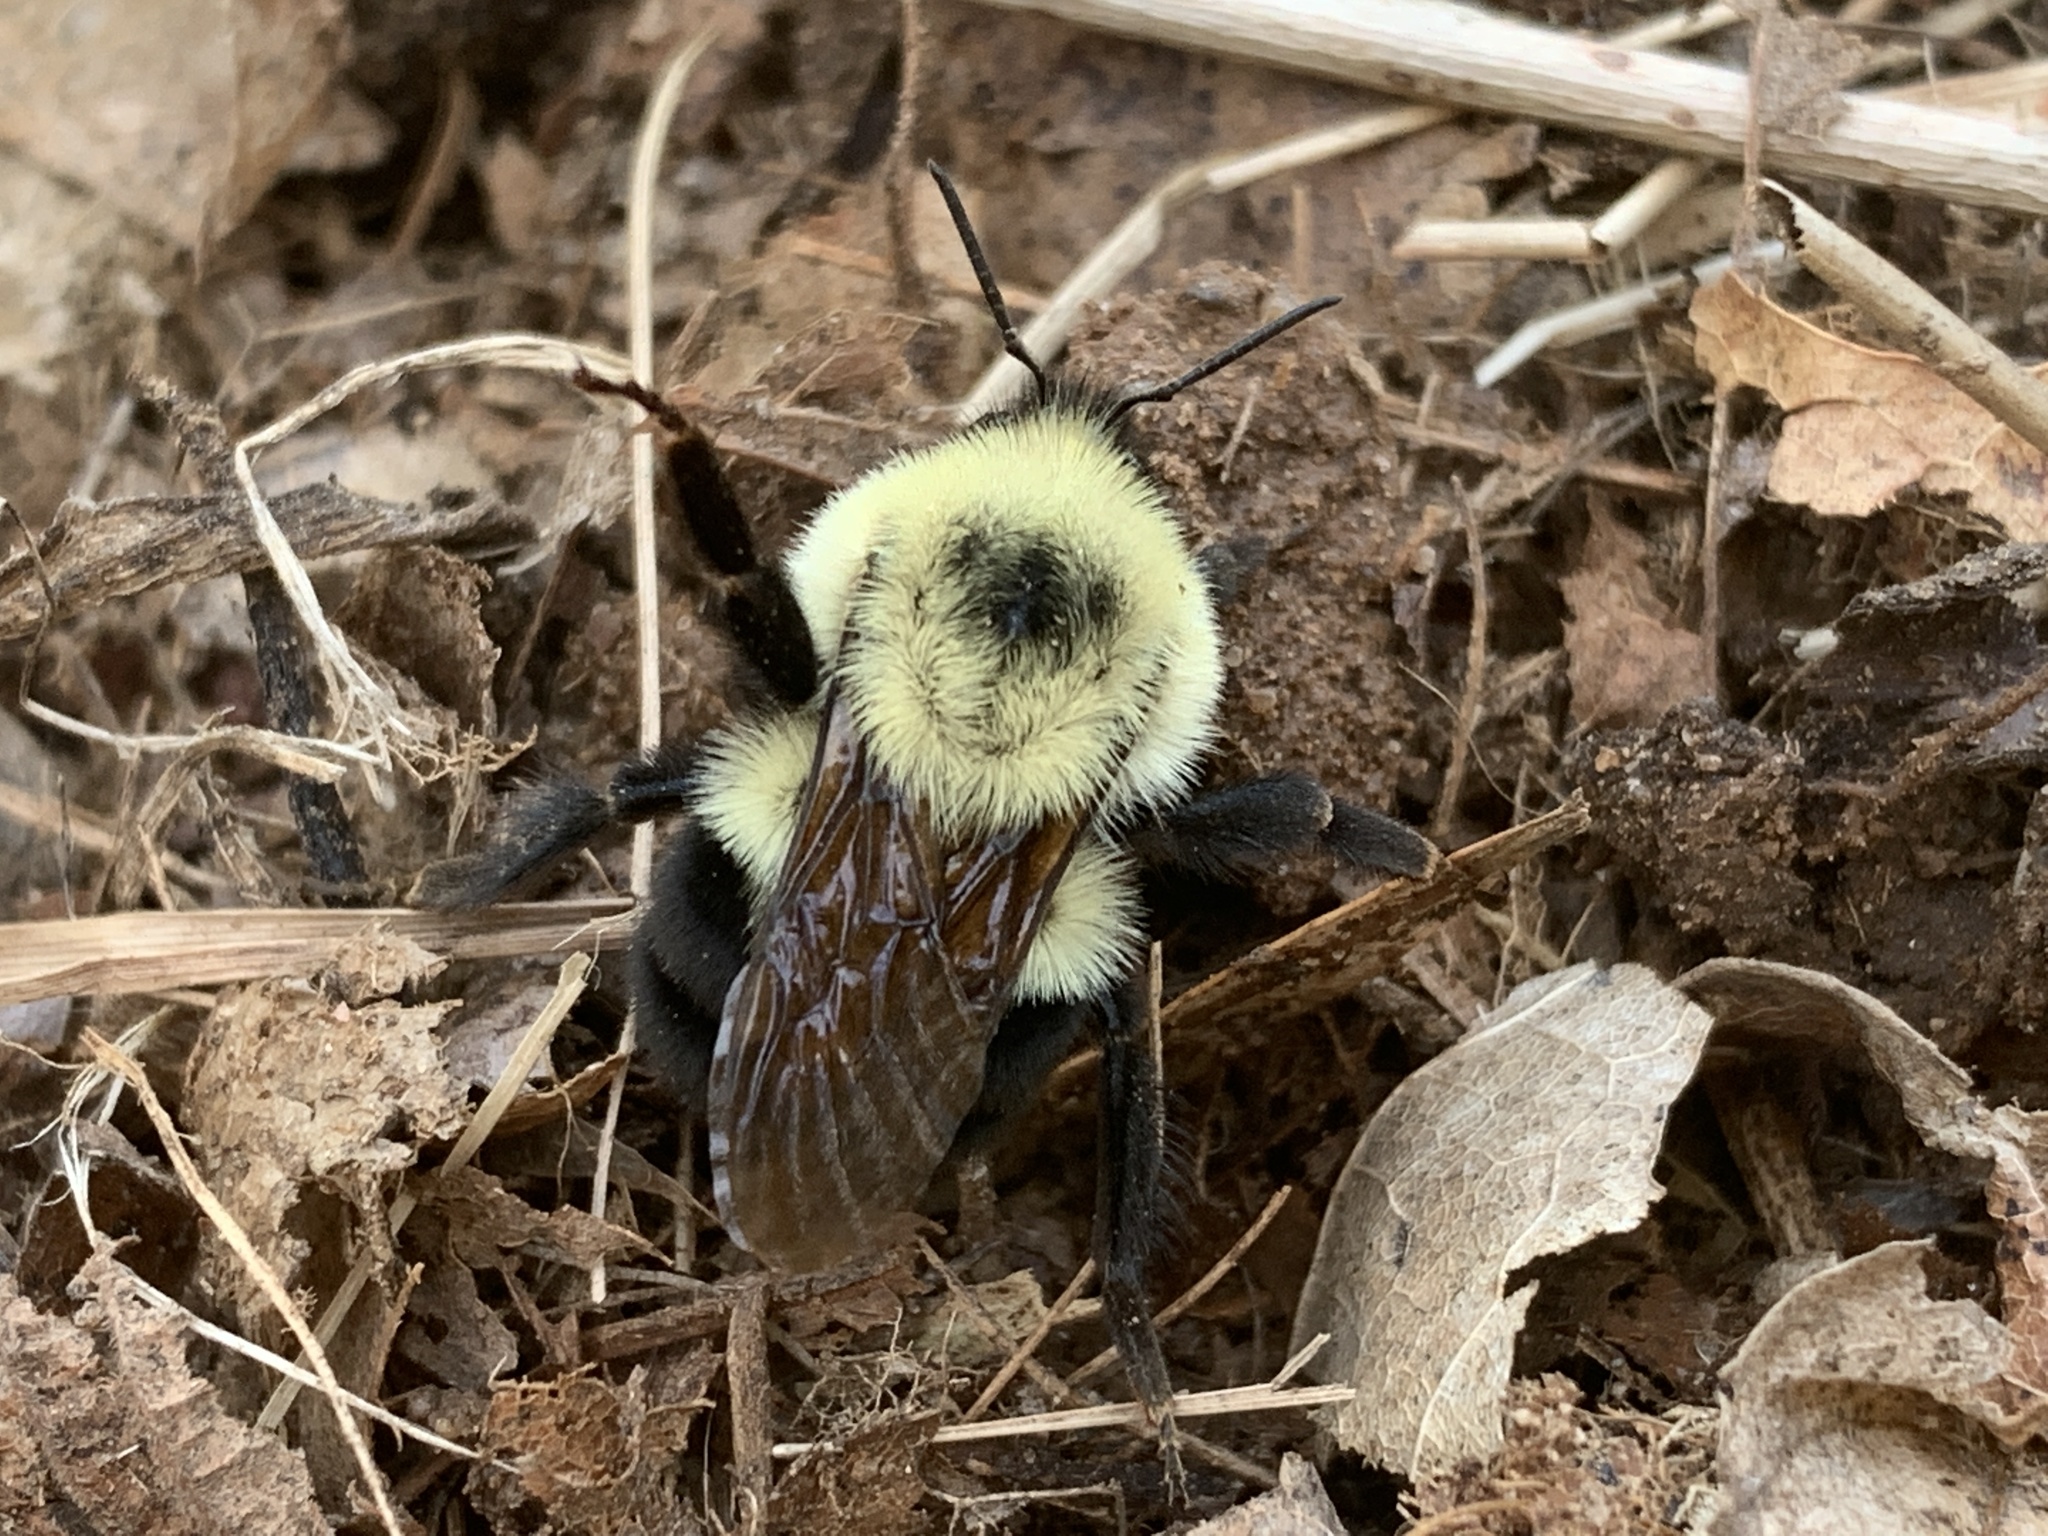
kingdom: Animalia
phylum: Arthropoda
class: Insecta
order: Hymenoptera
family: Apidae
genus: Bombus
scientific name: Bombus bimaculatus
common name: Two-spotted bumble bee
